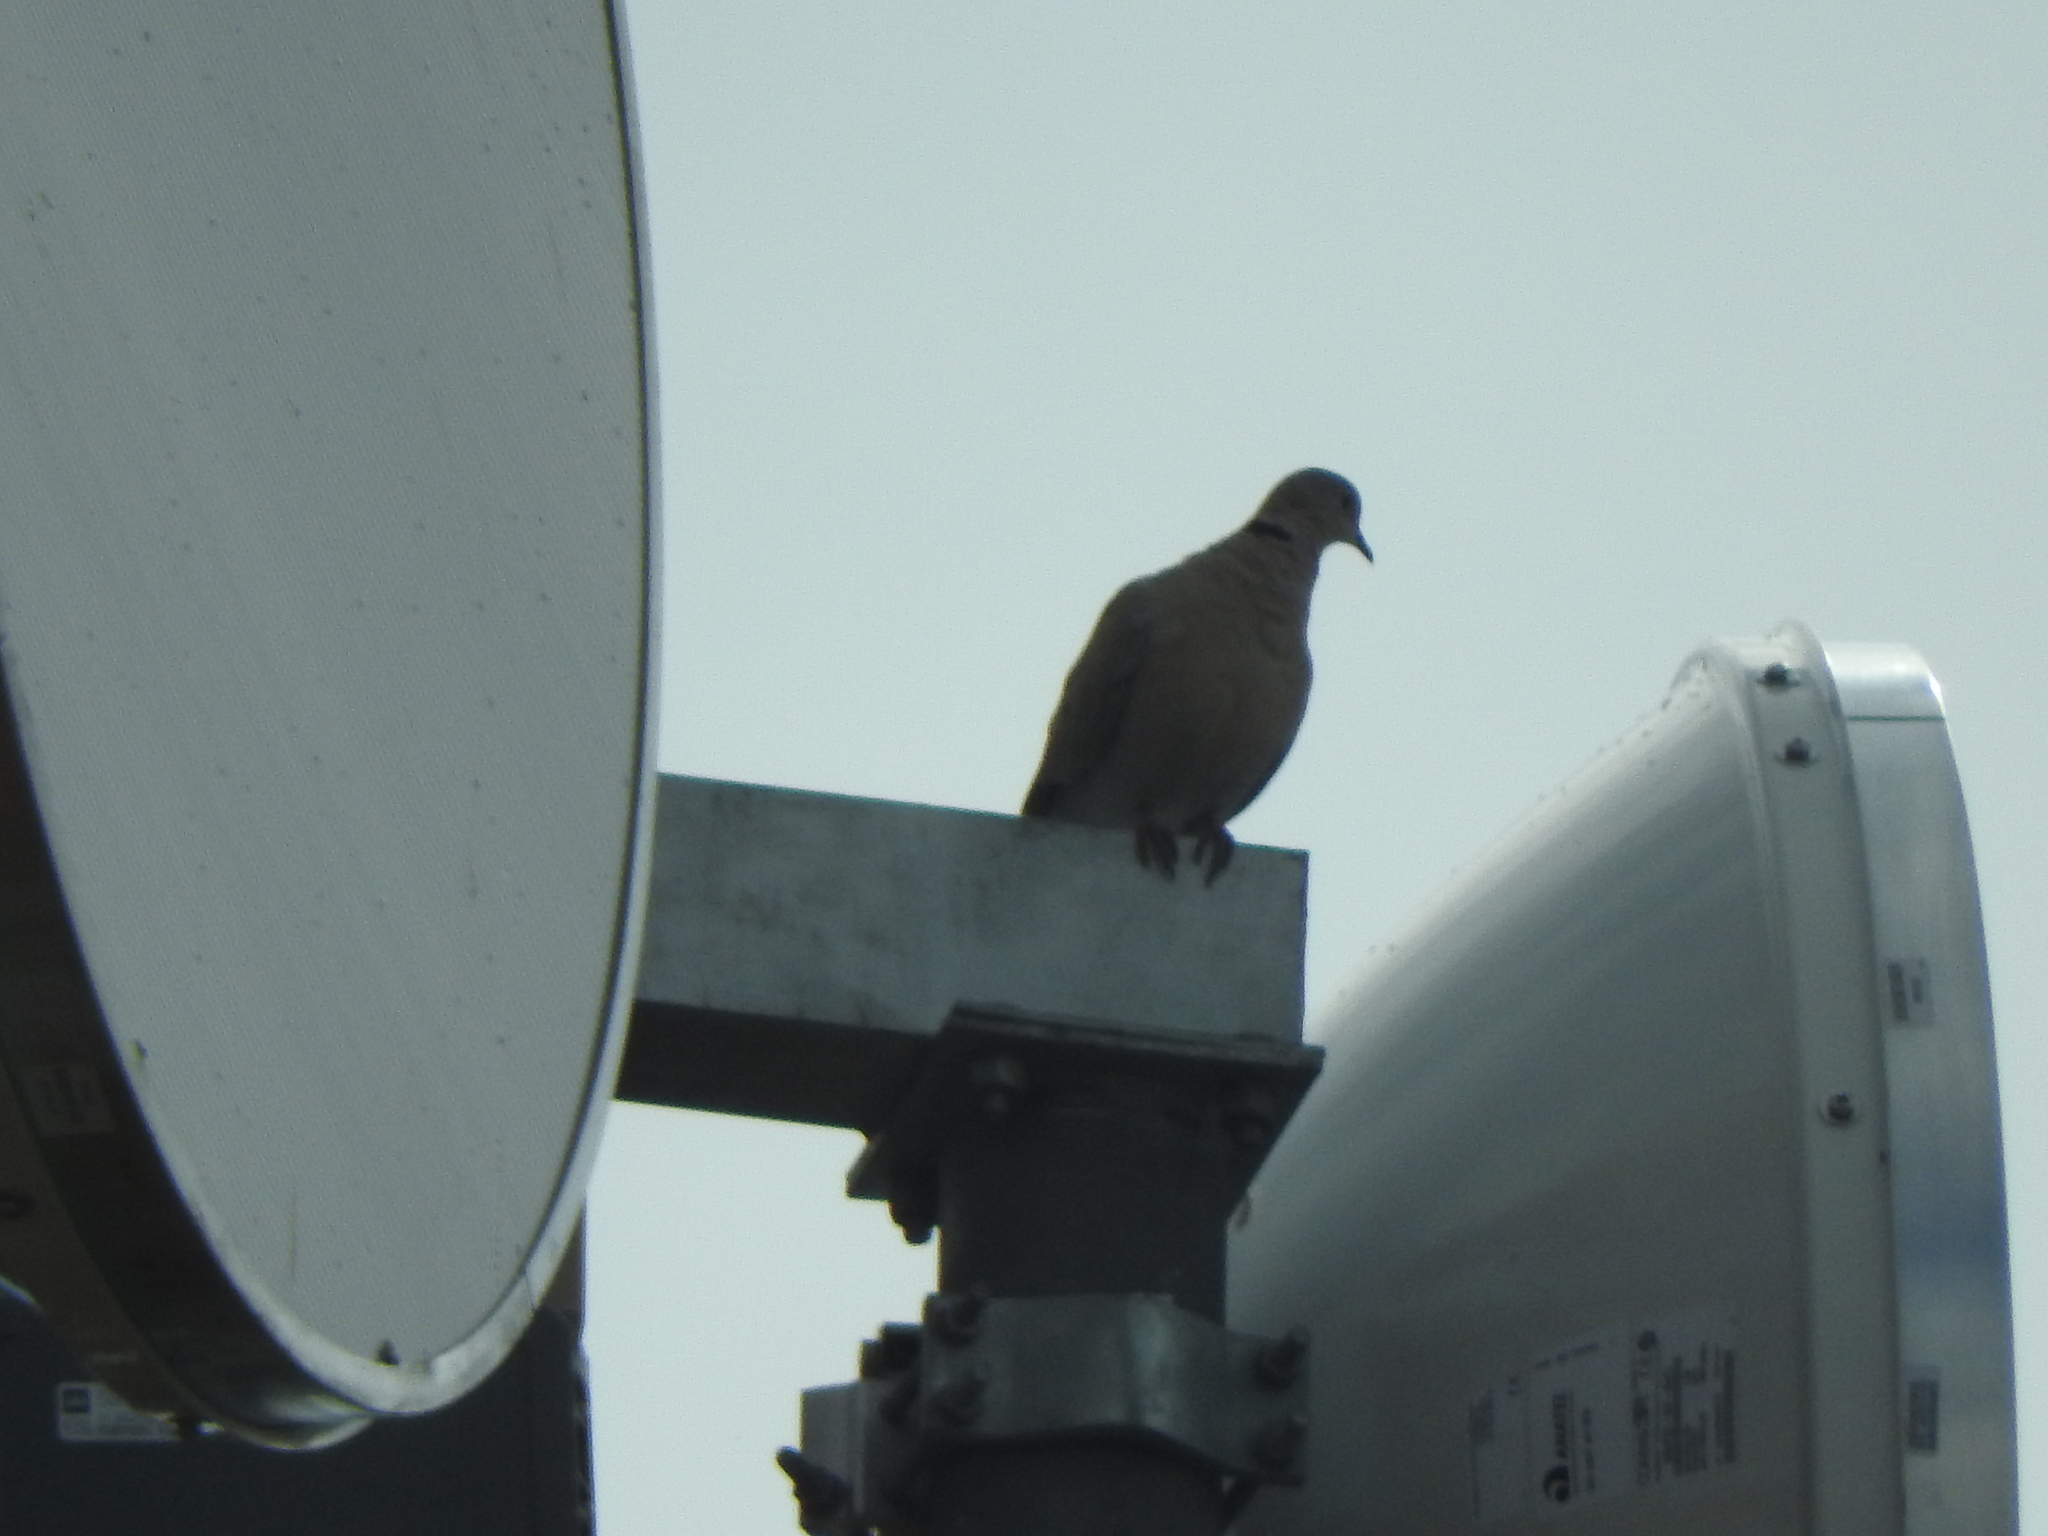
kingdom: Animalia
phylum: Chordata
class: Aves
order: Columbiformes
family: Columbidae
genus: Streptopelia
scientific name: Streptopelia decaocto
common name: Eurasian collared dove
